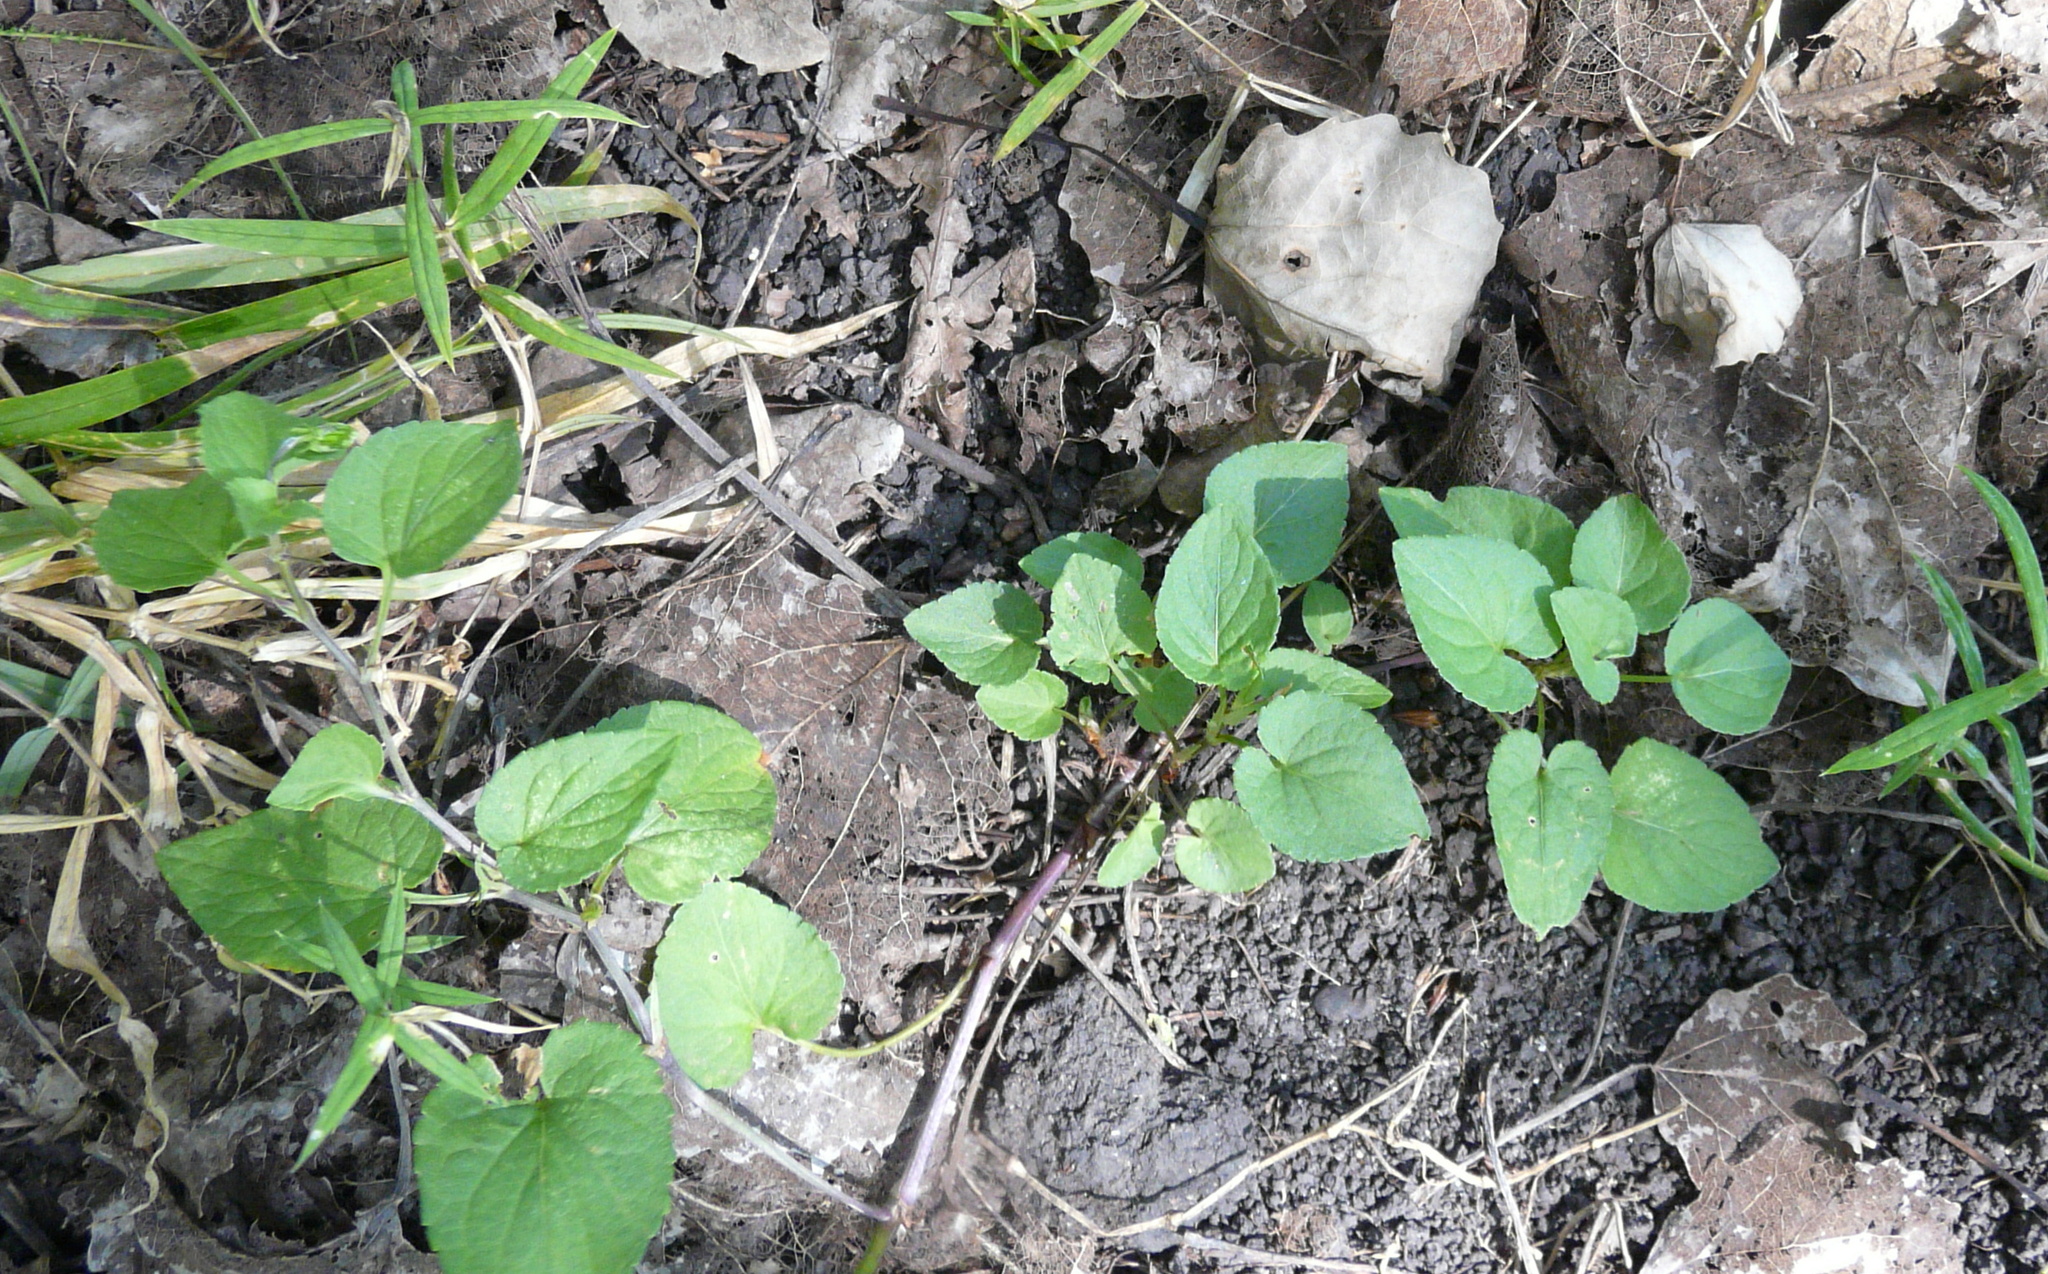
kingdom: Plantae
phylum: Tracheophyta
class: Magnoliopsida
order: Malpighiales
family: Violaceae
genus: Viola
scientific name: Viola rupestris
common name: Teesdale violet
